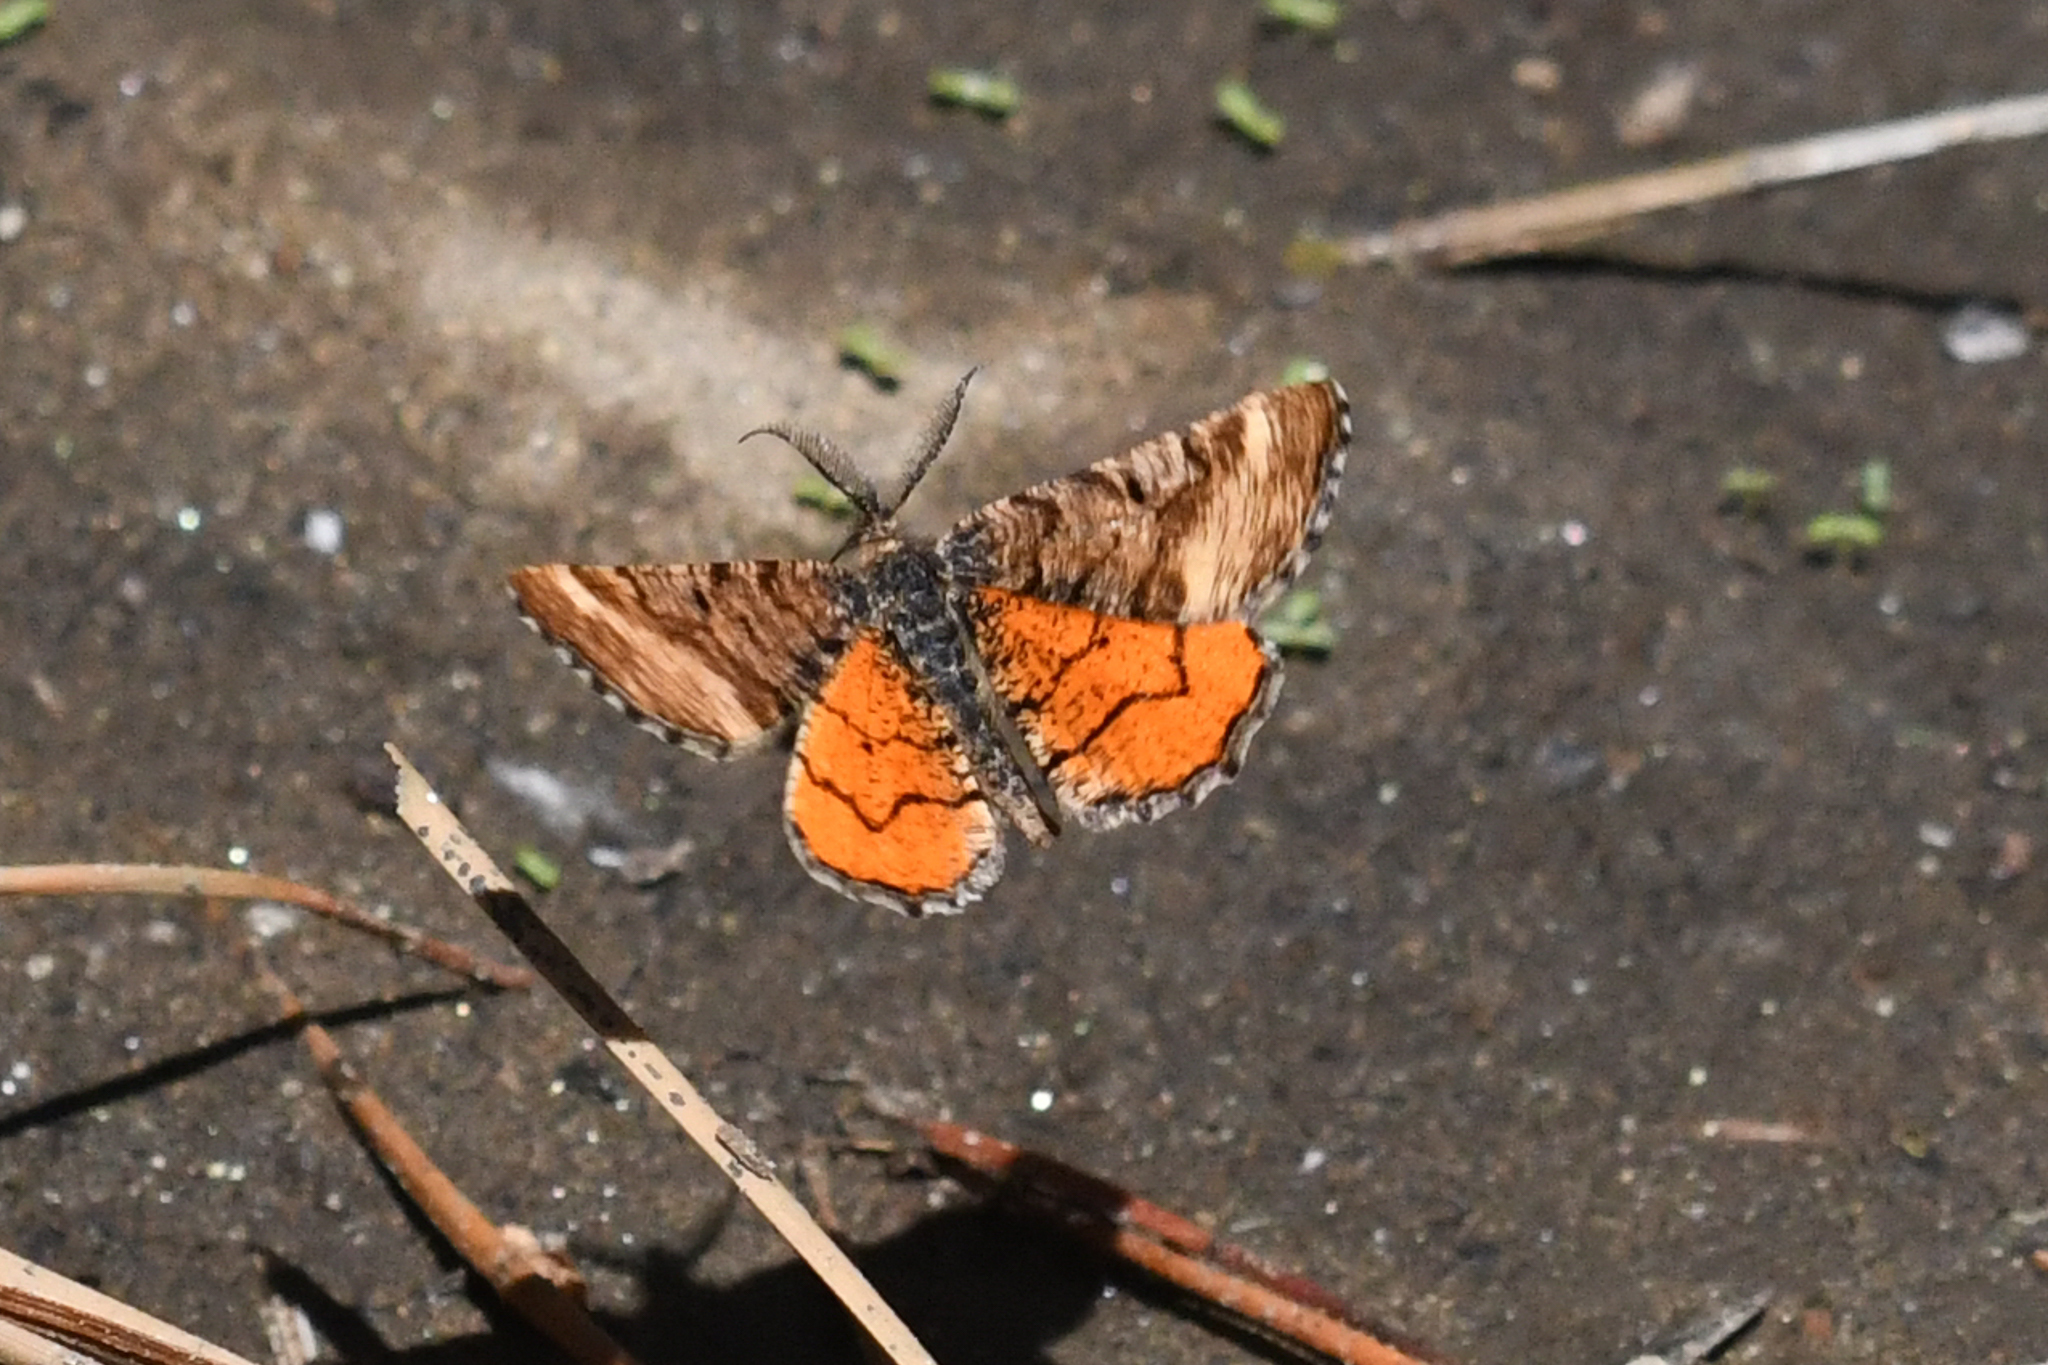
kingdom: Animalia
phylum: Arthropoda
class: Insecta
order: Lepidoptera
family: Geometridae
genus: Dasyfidonia
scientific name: Dasyfidonia avuncularia
